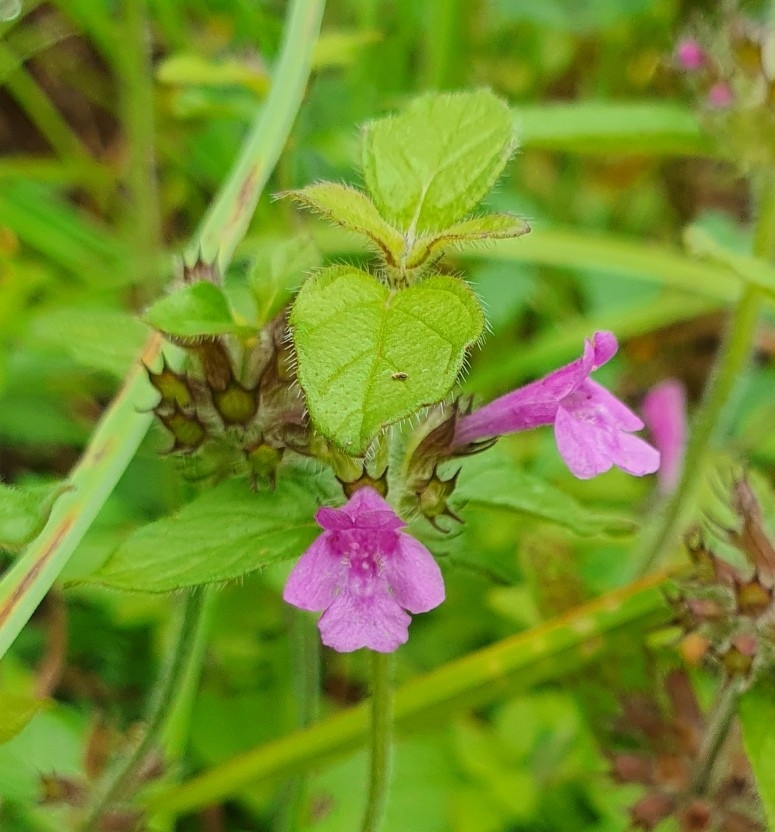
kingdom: Plantae
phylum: Tracheophyta
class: Magnoliopsida
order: Lamiales
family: Lamiaceae
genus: Clinopodium
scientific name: Clinopodium vulgare
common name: Wild basil
